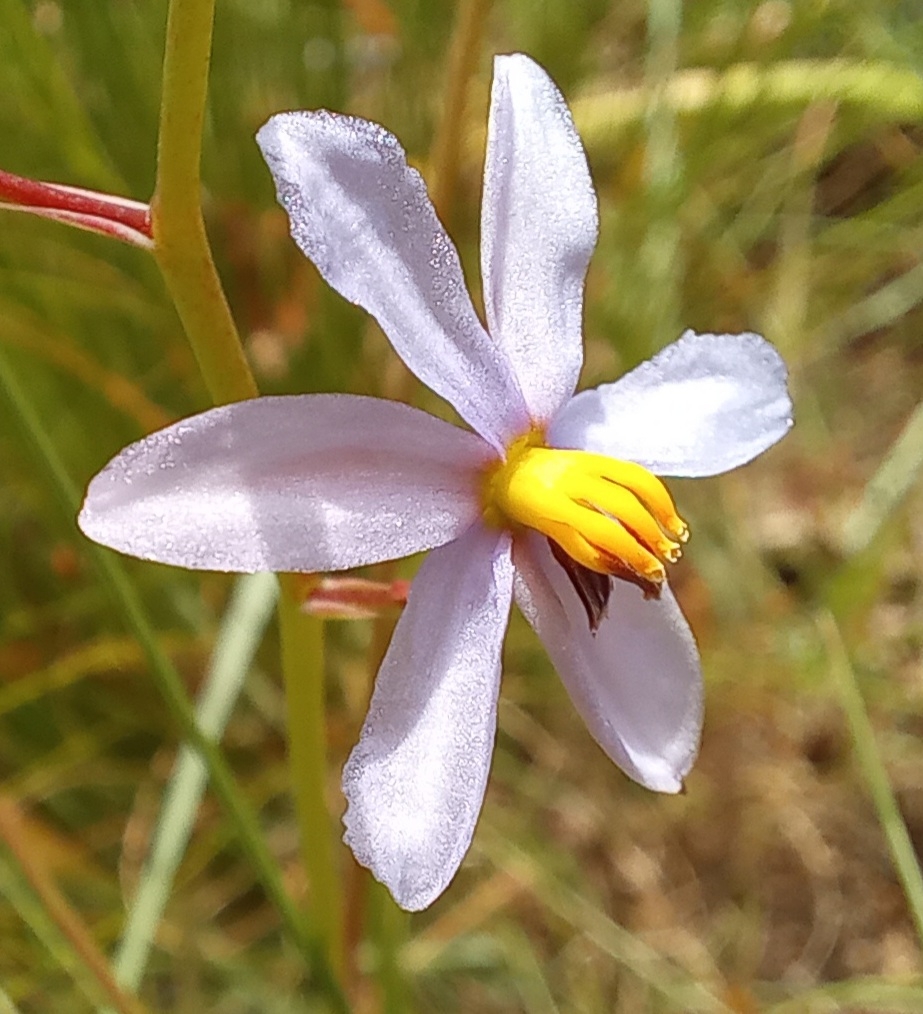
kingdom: Plantae
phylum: Tracheophyta
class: Liliopsida
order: Asparagales
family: Tecophilaeaceae
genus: Cyanella
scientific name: Cyanella hyacinthoides
